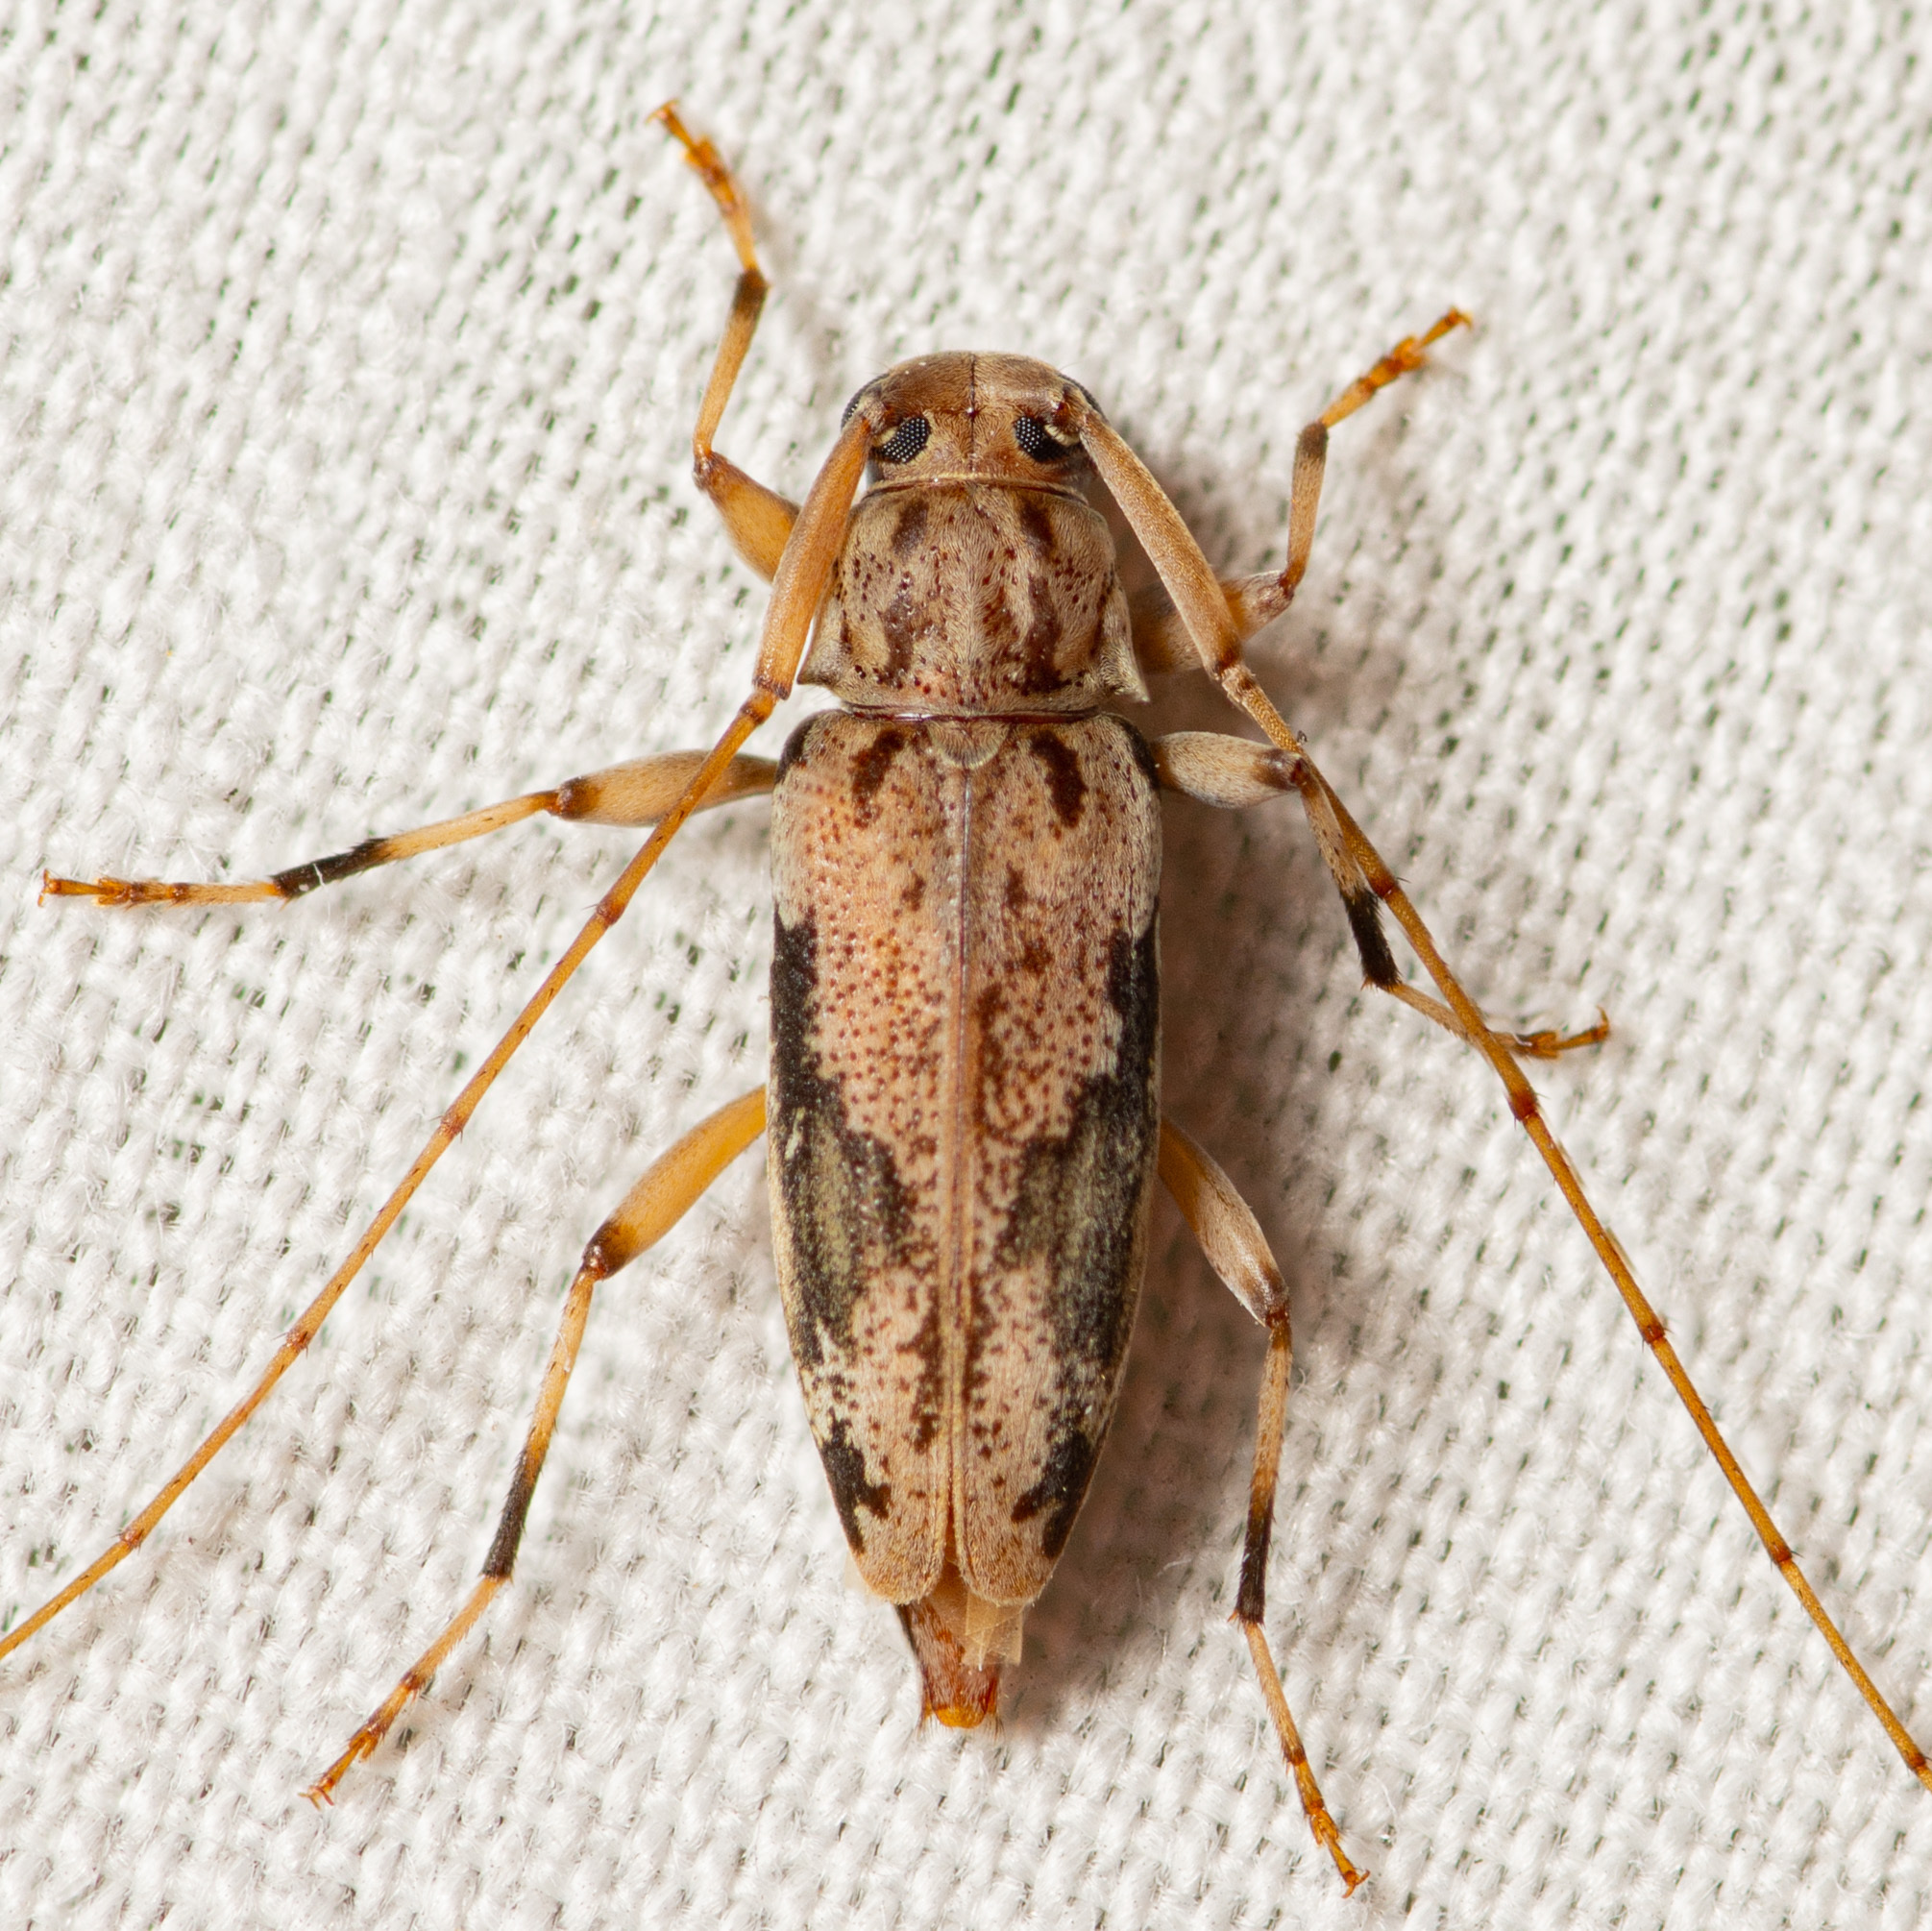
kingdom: Animalia
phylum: Arthropoda
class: Insecta
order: Coleoptera
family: Cerambycidae
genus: Lepturges
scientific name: Lepturges angulatus
